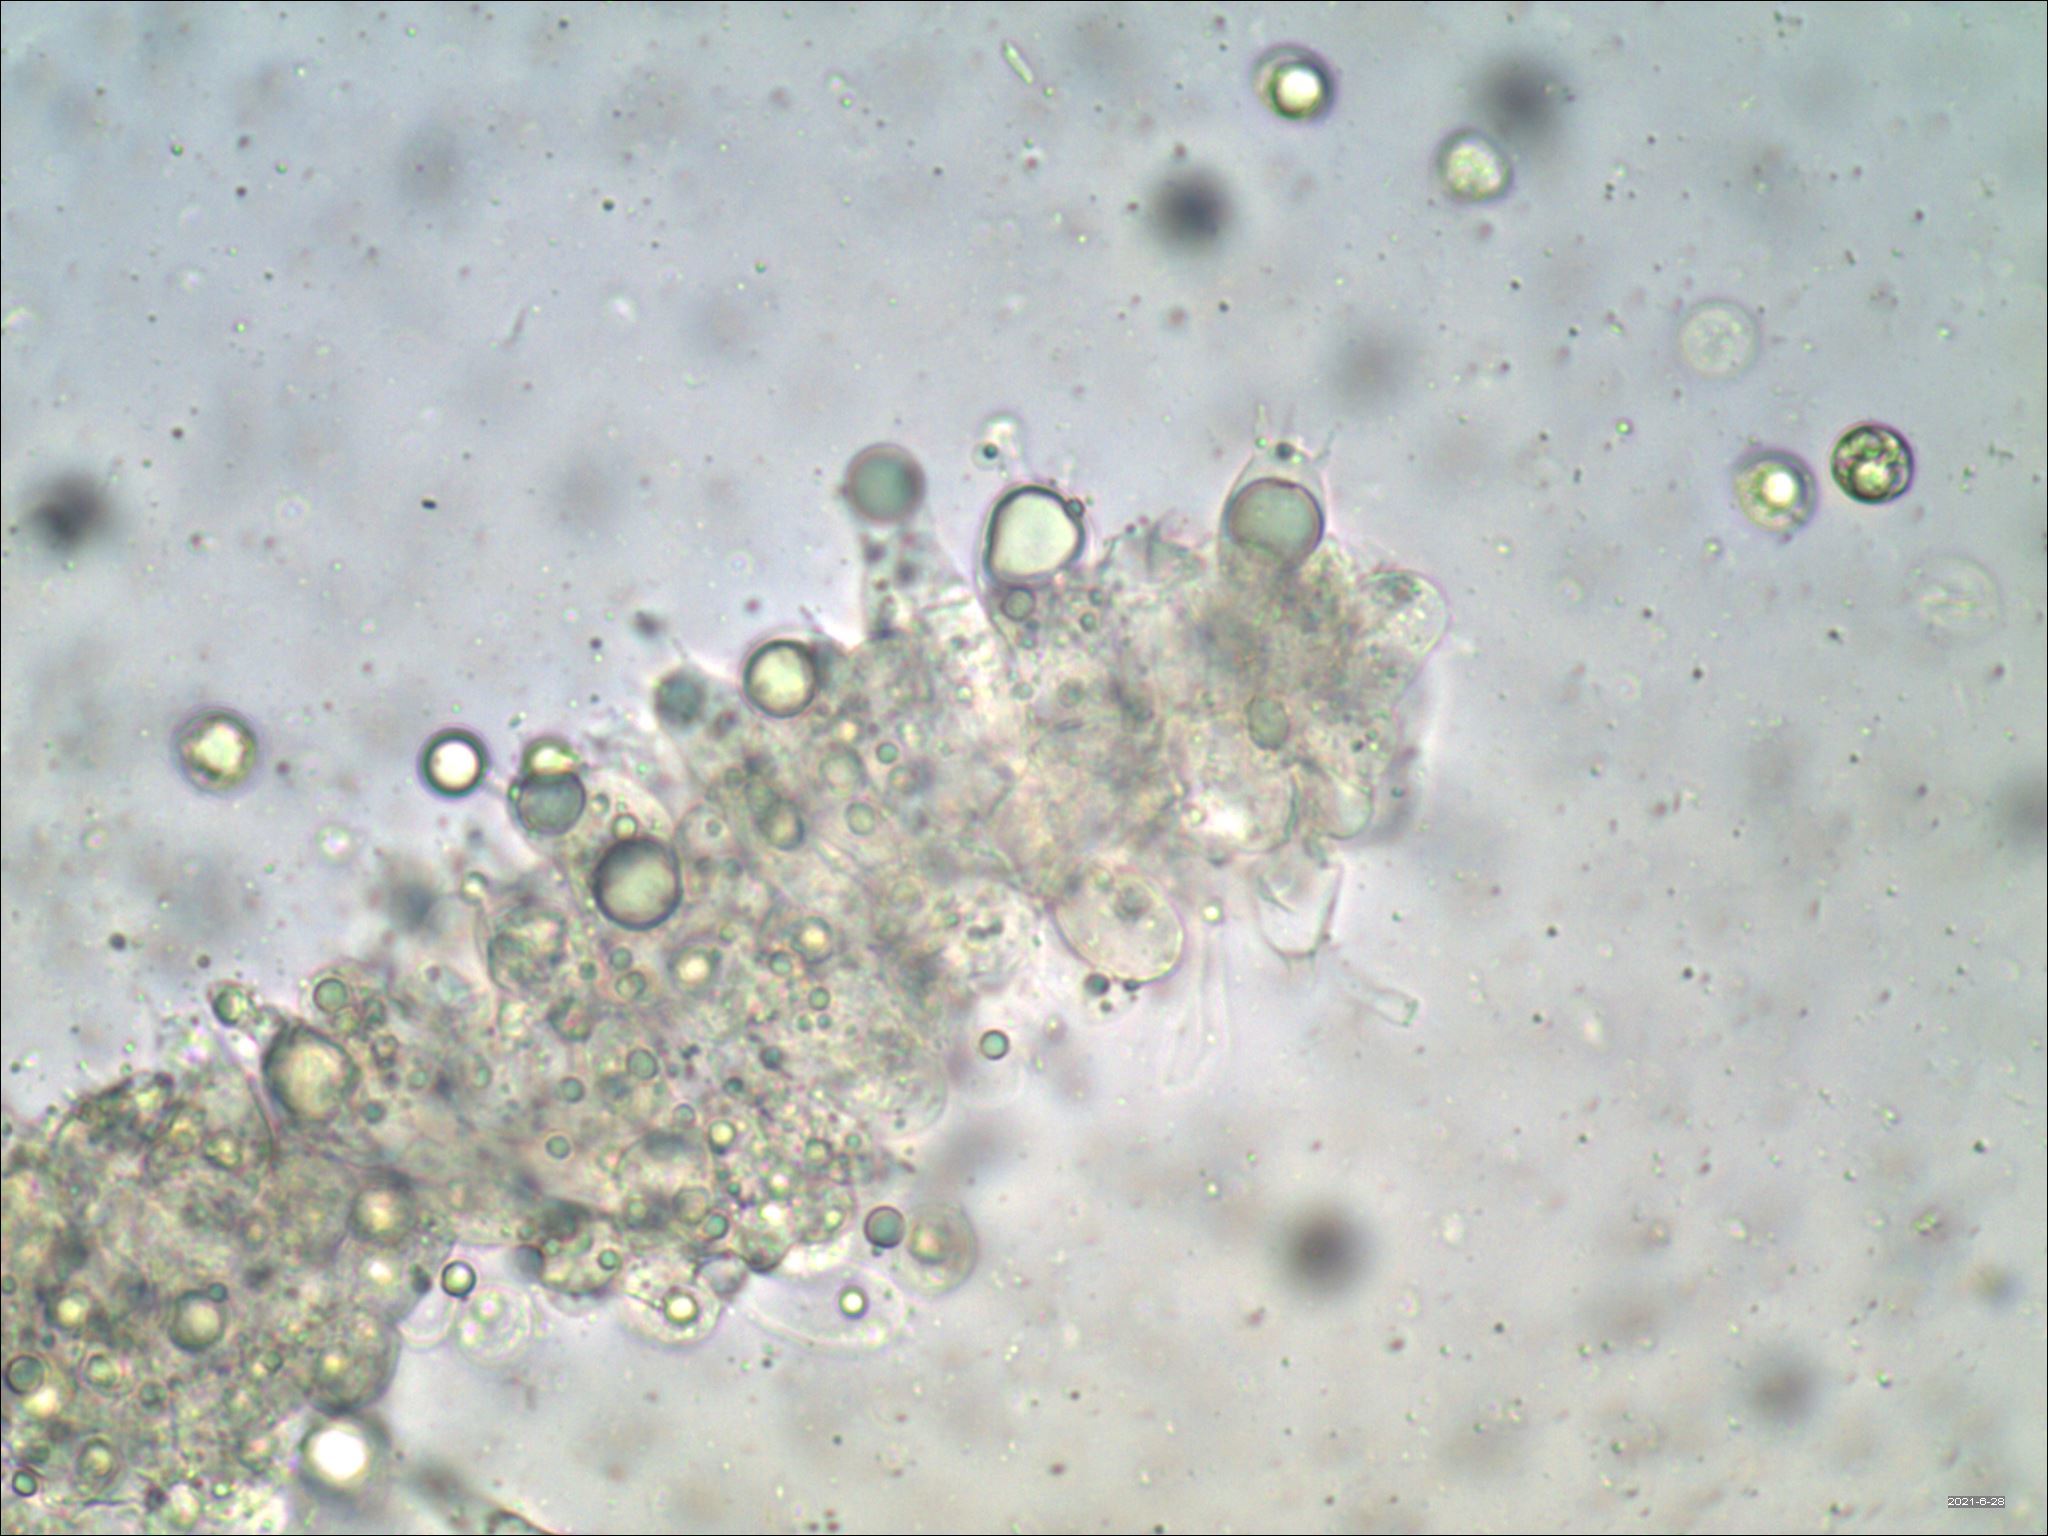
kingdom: Fungi
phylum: Basidiomycota
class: Agaricomycetes
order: Agaricales
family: Amanitaceae
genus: Amanita
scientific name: Amanita vaginata
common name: Grisette
